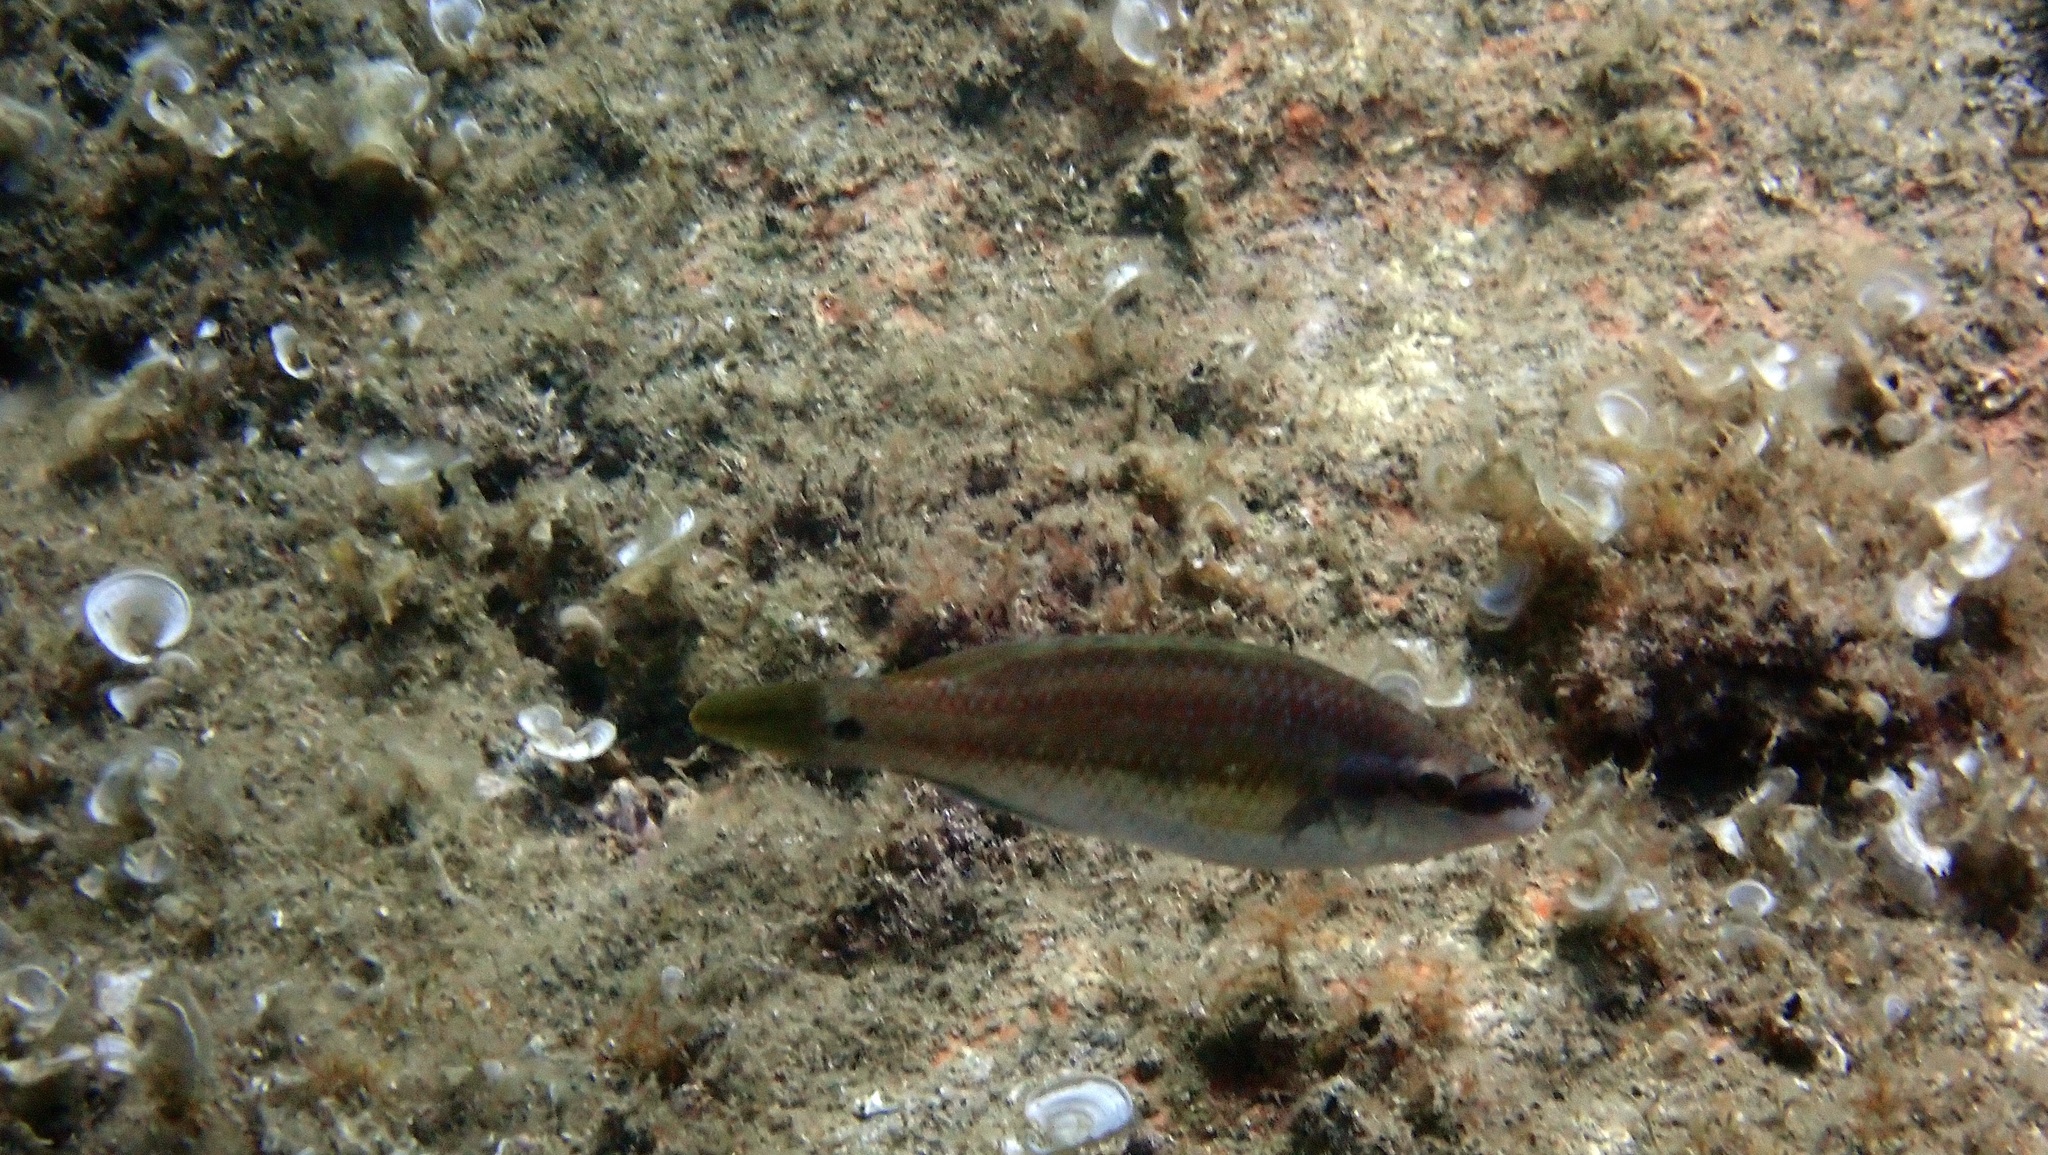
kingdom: Animalia
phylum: Chordata
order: Perciformes
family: Labridae
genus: Symphodus
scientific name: Symphodus tinca
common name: Peacock wrasse
